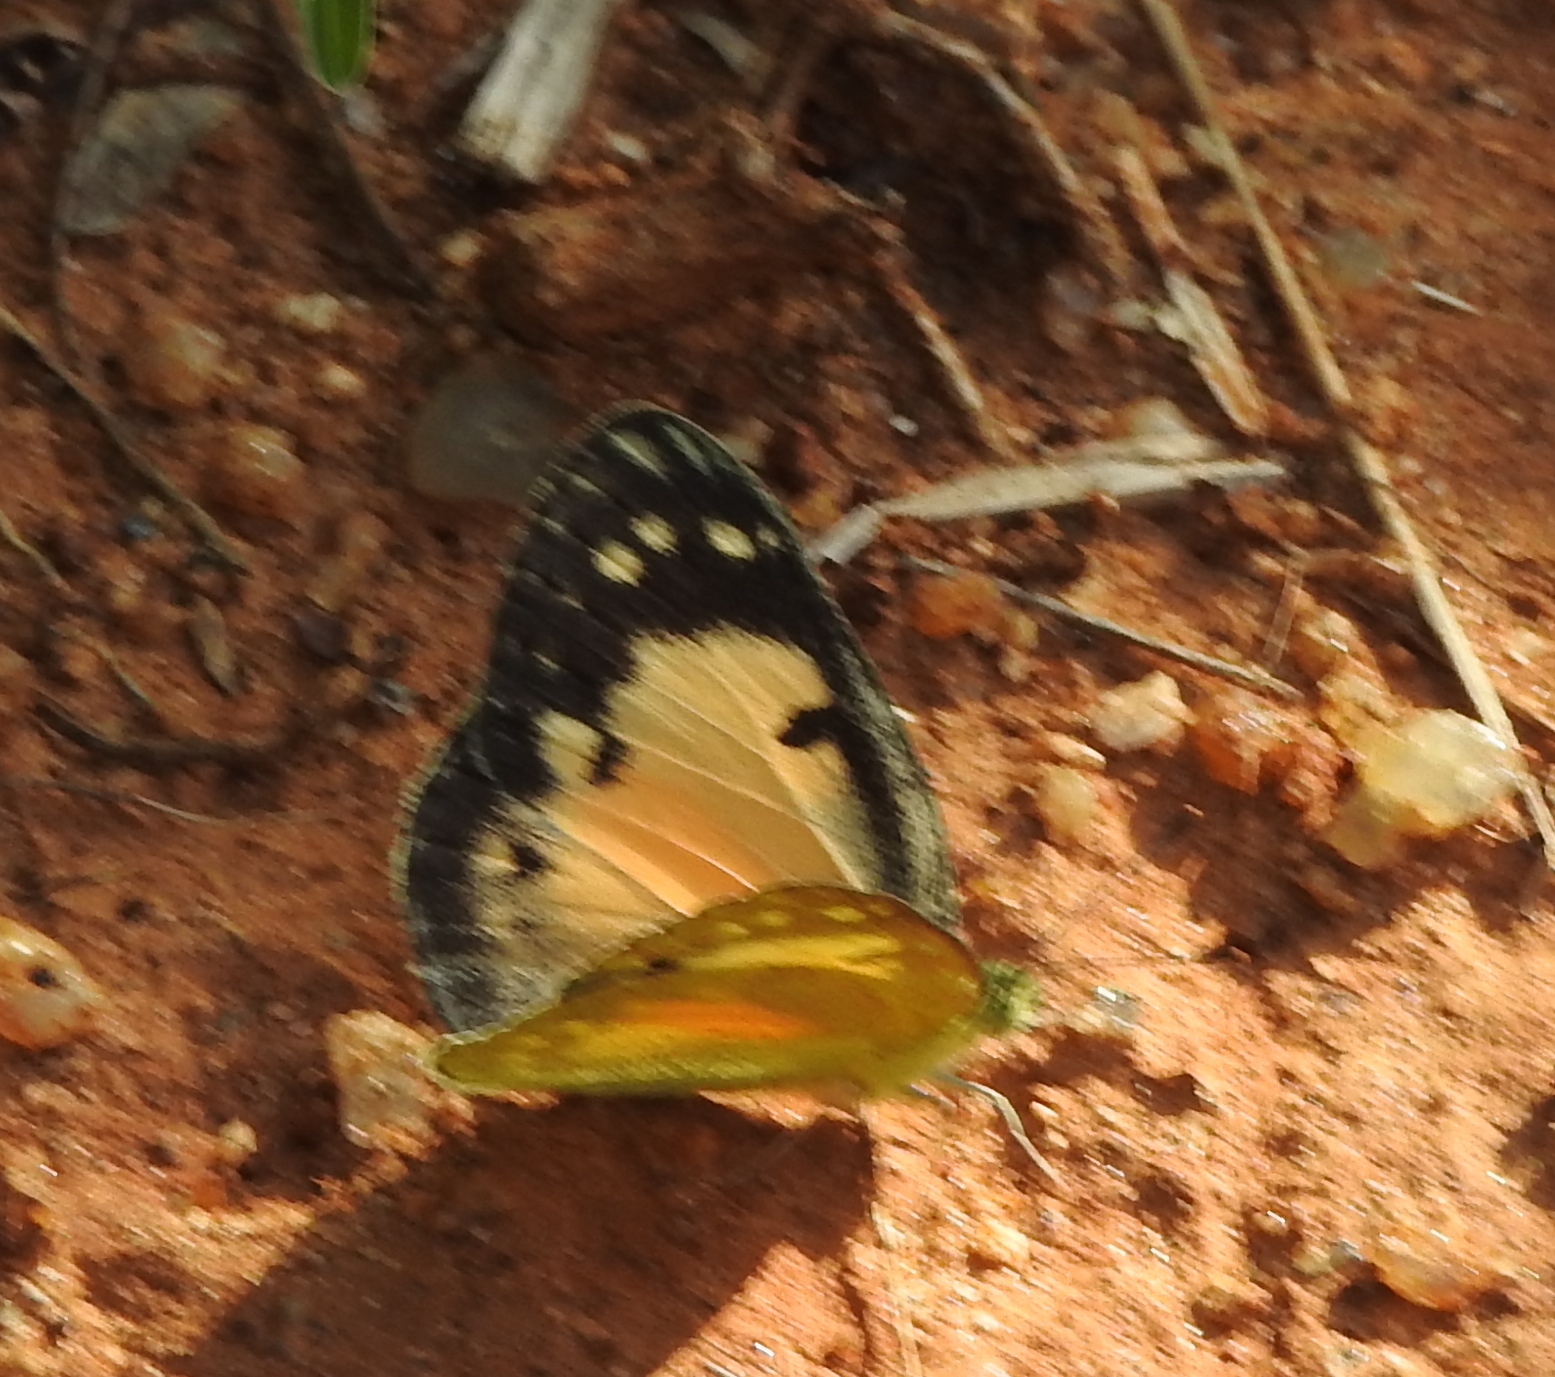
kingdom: Animalia
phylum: Arthropoda
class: Insecta
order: Lepidoptera
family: Pieridae
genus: Colotis
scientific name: Colotis amata
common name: Small salmon arab
